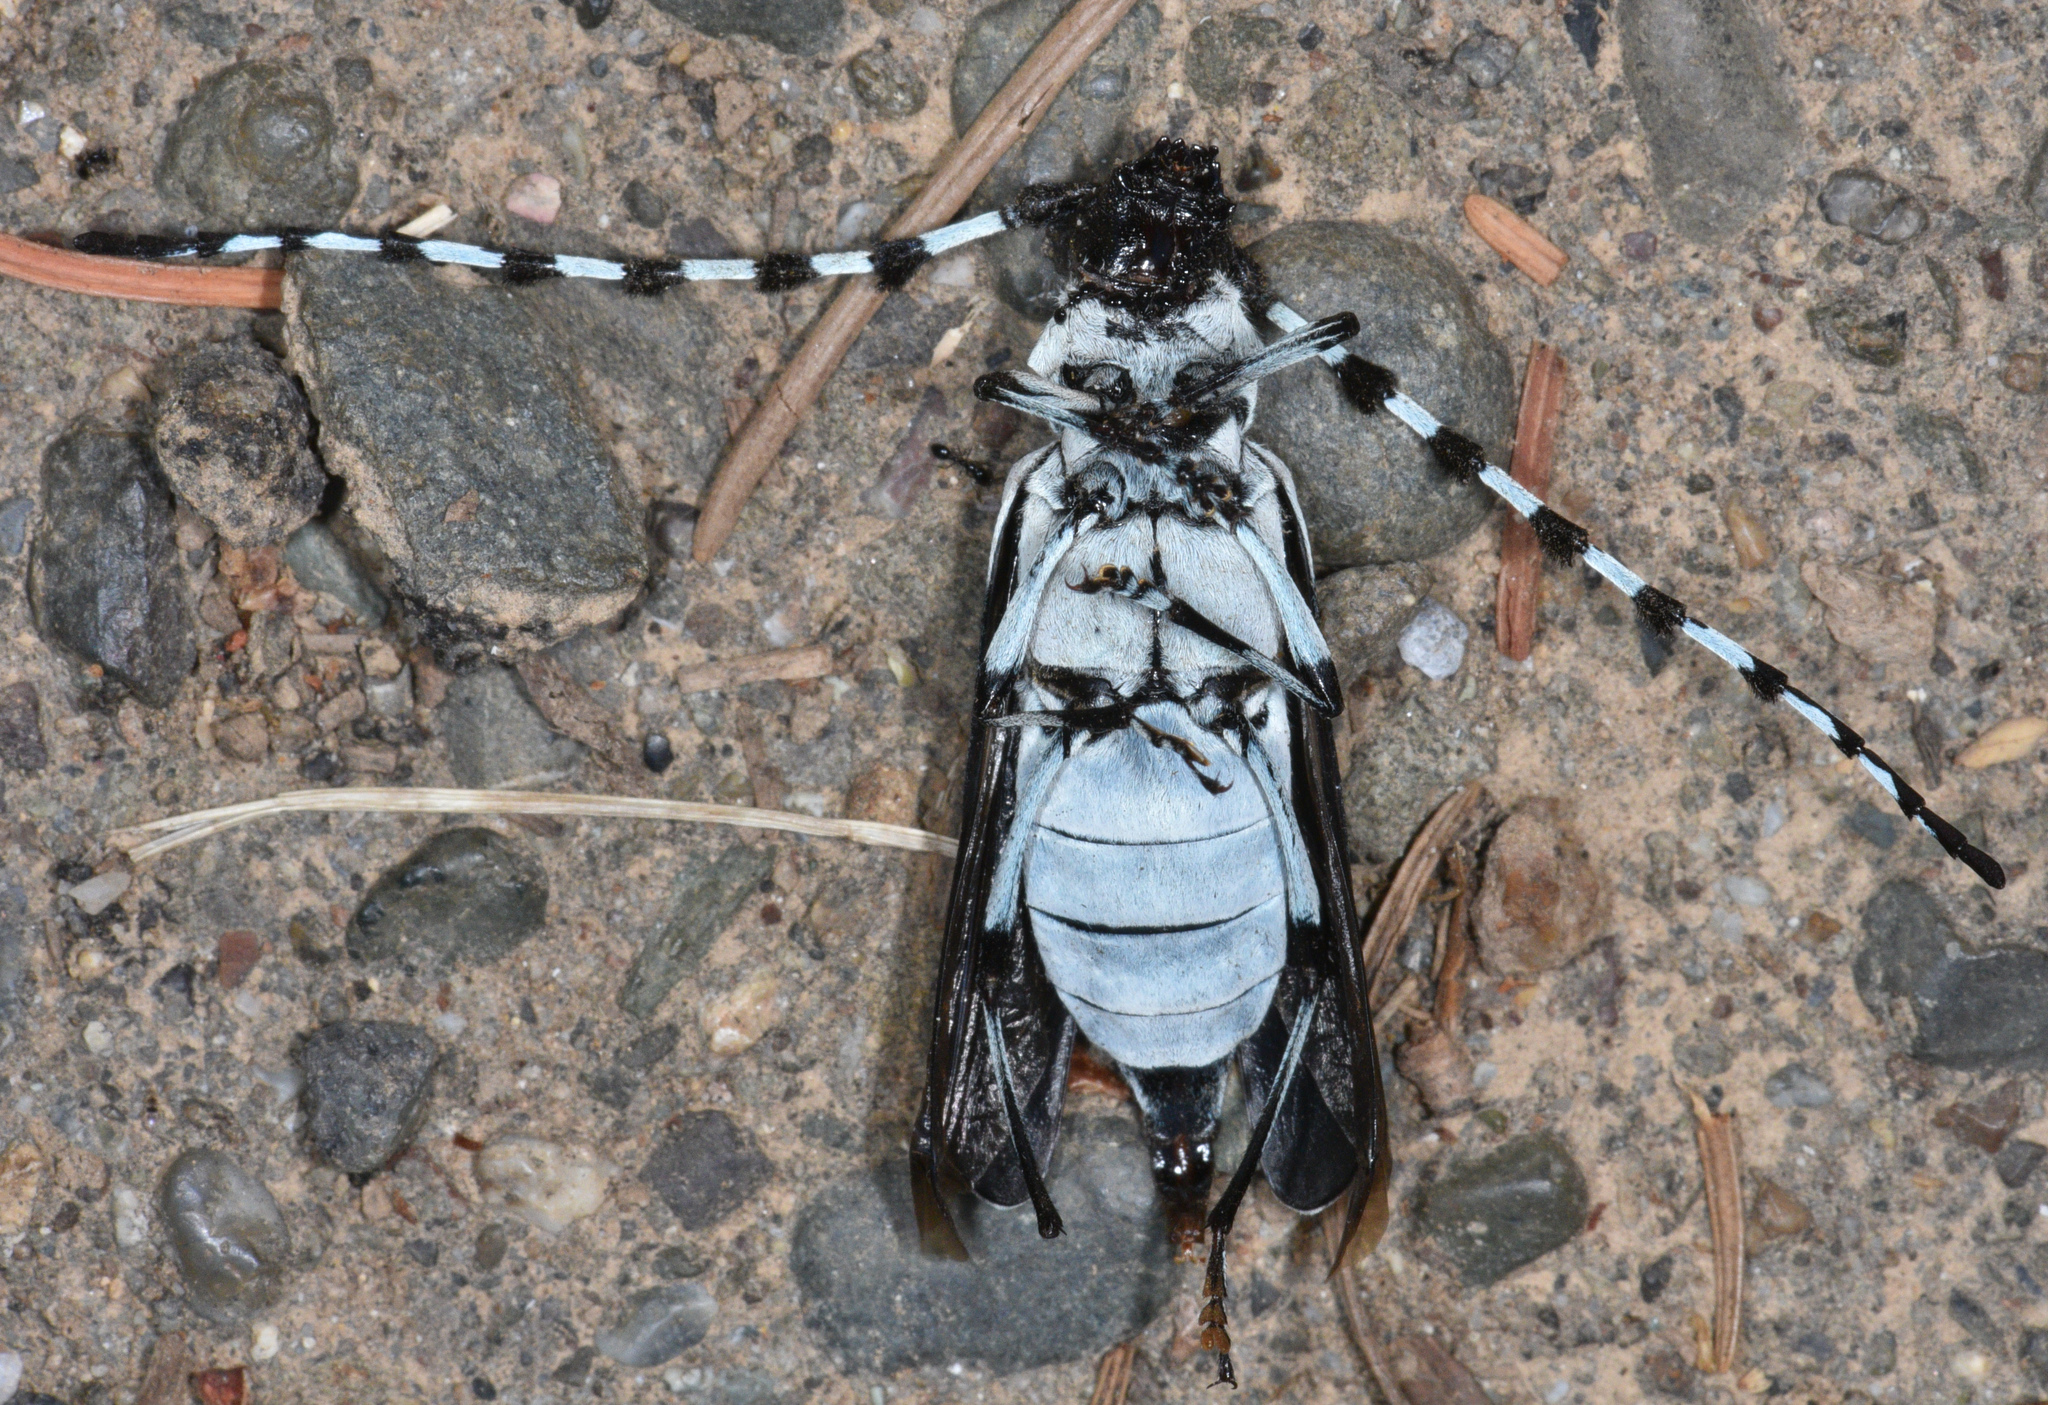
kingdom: Animalia
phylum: Arthropoda
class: Insecta
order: Coleoptera
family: Cerambycidae
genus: Rosalia
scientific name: Rosalia funebris
